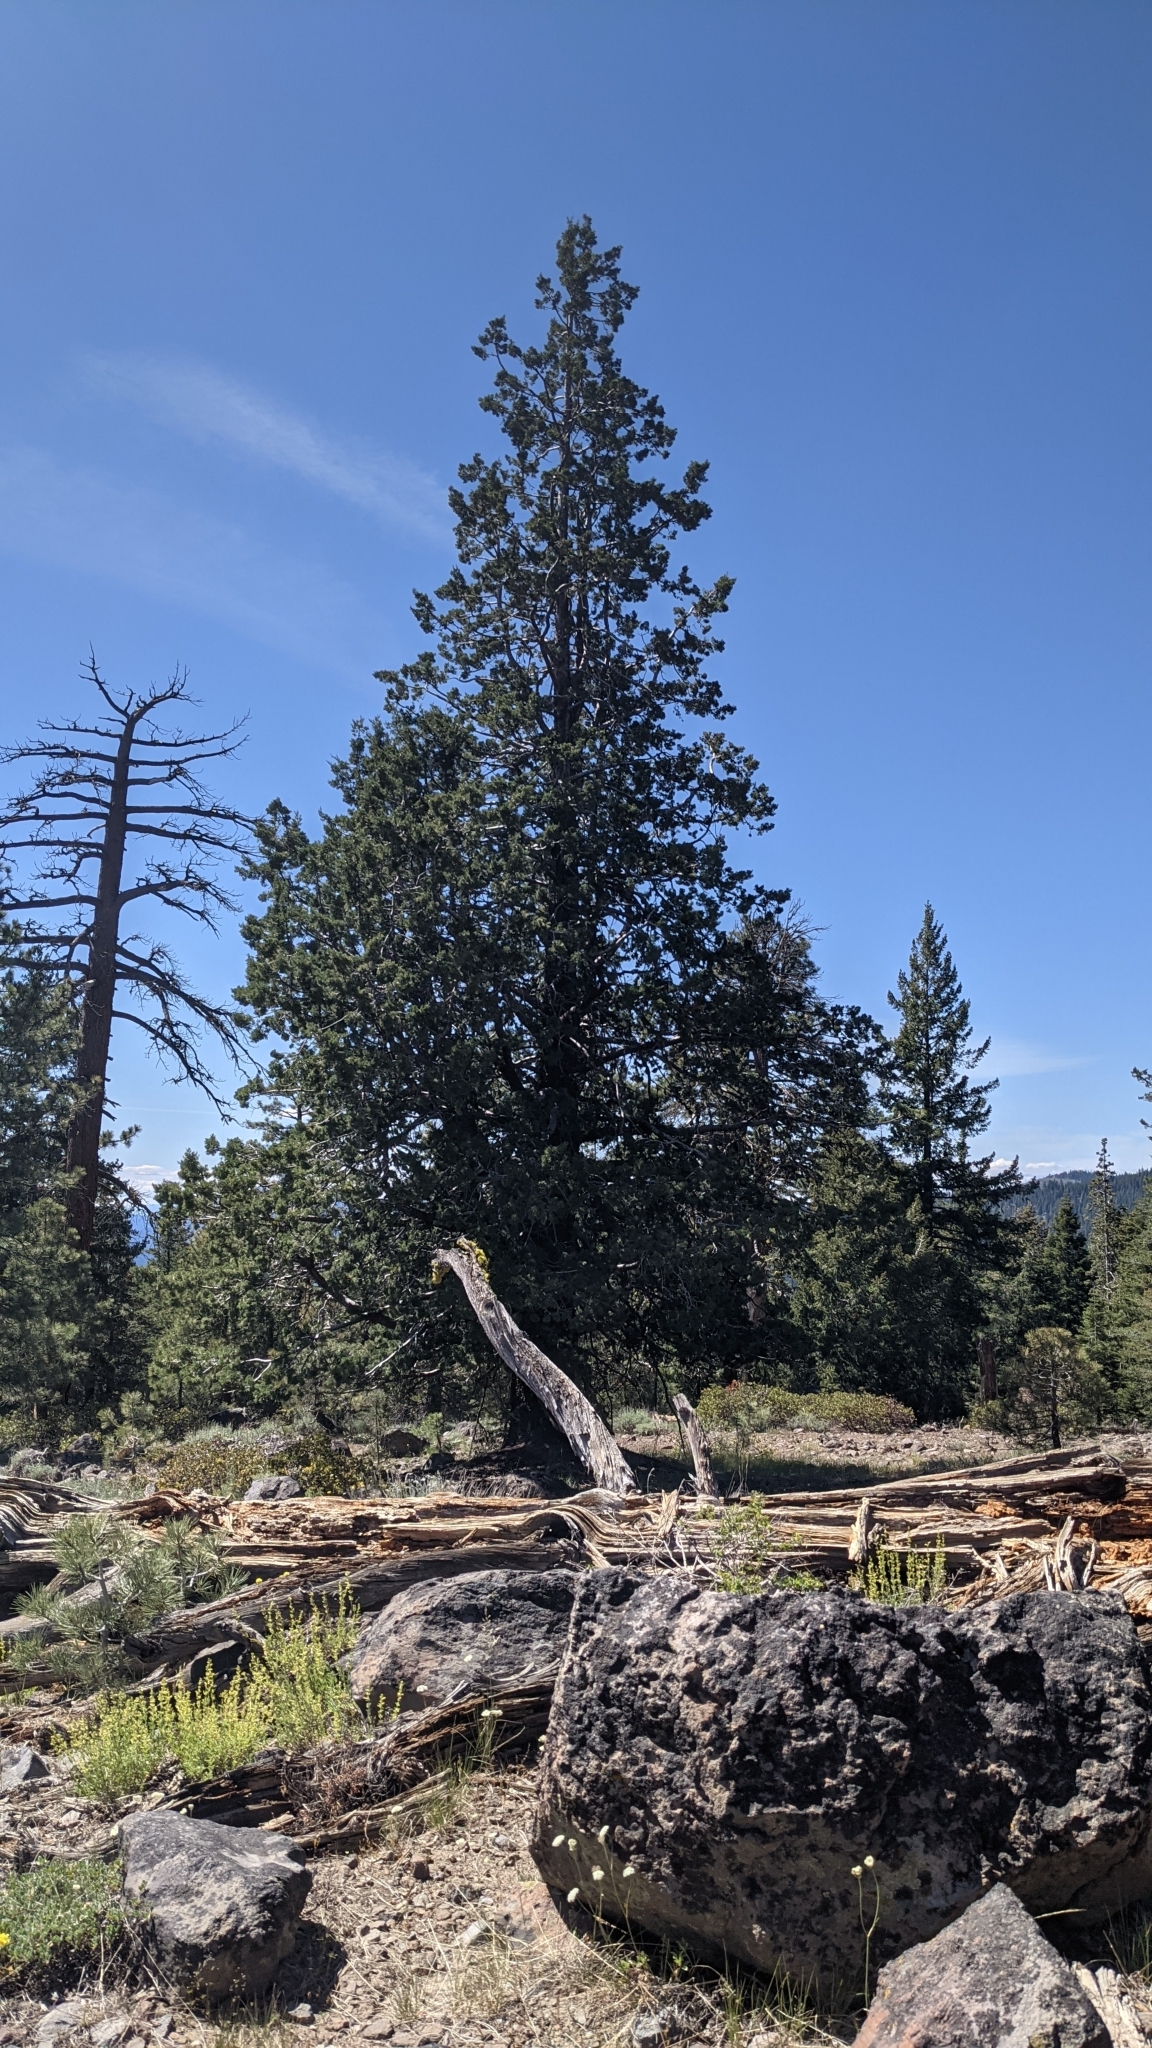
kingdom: Plantae
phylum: Tracheophyta
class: Pinopsida
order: Pinales
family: Cupressaceae
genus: Cupressus
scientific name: Cupressus bakeri
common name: Baker cypress
